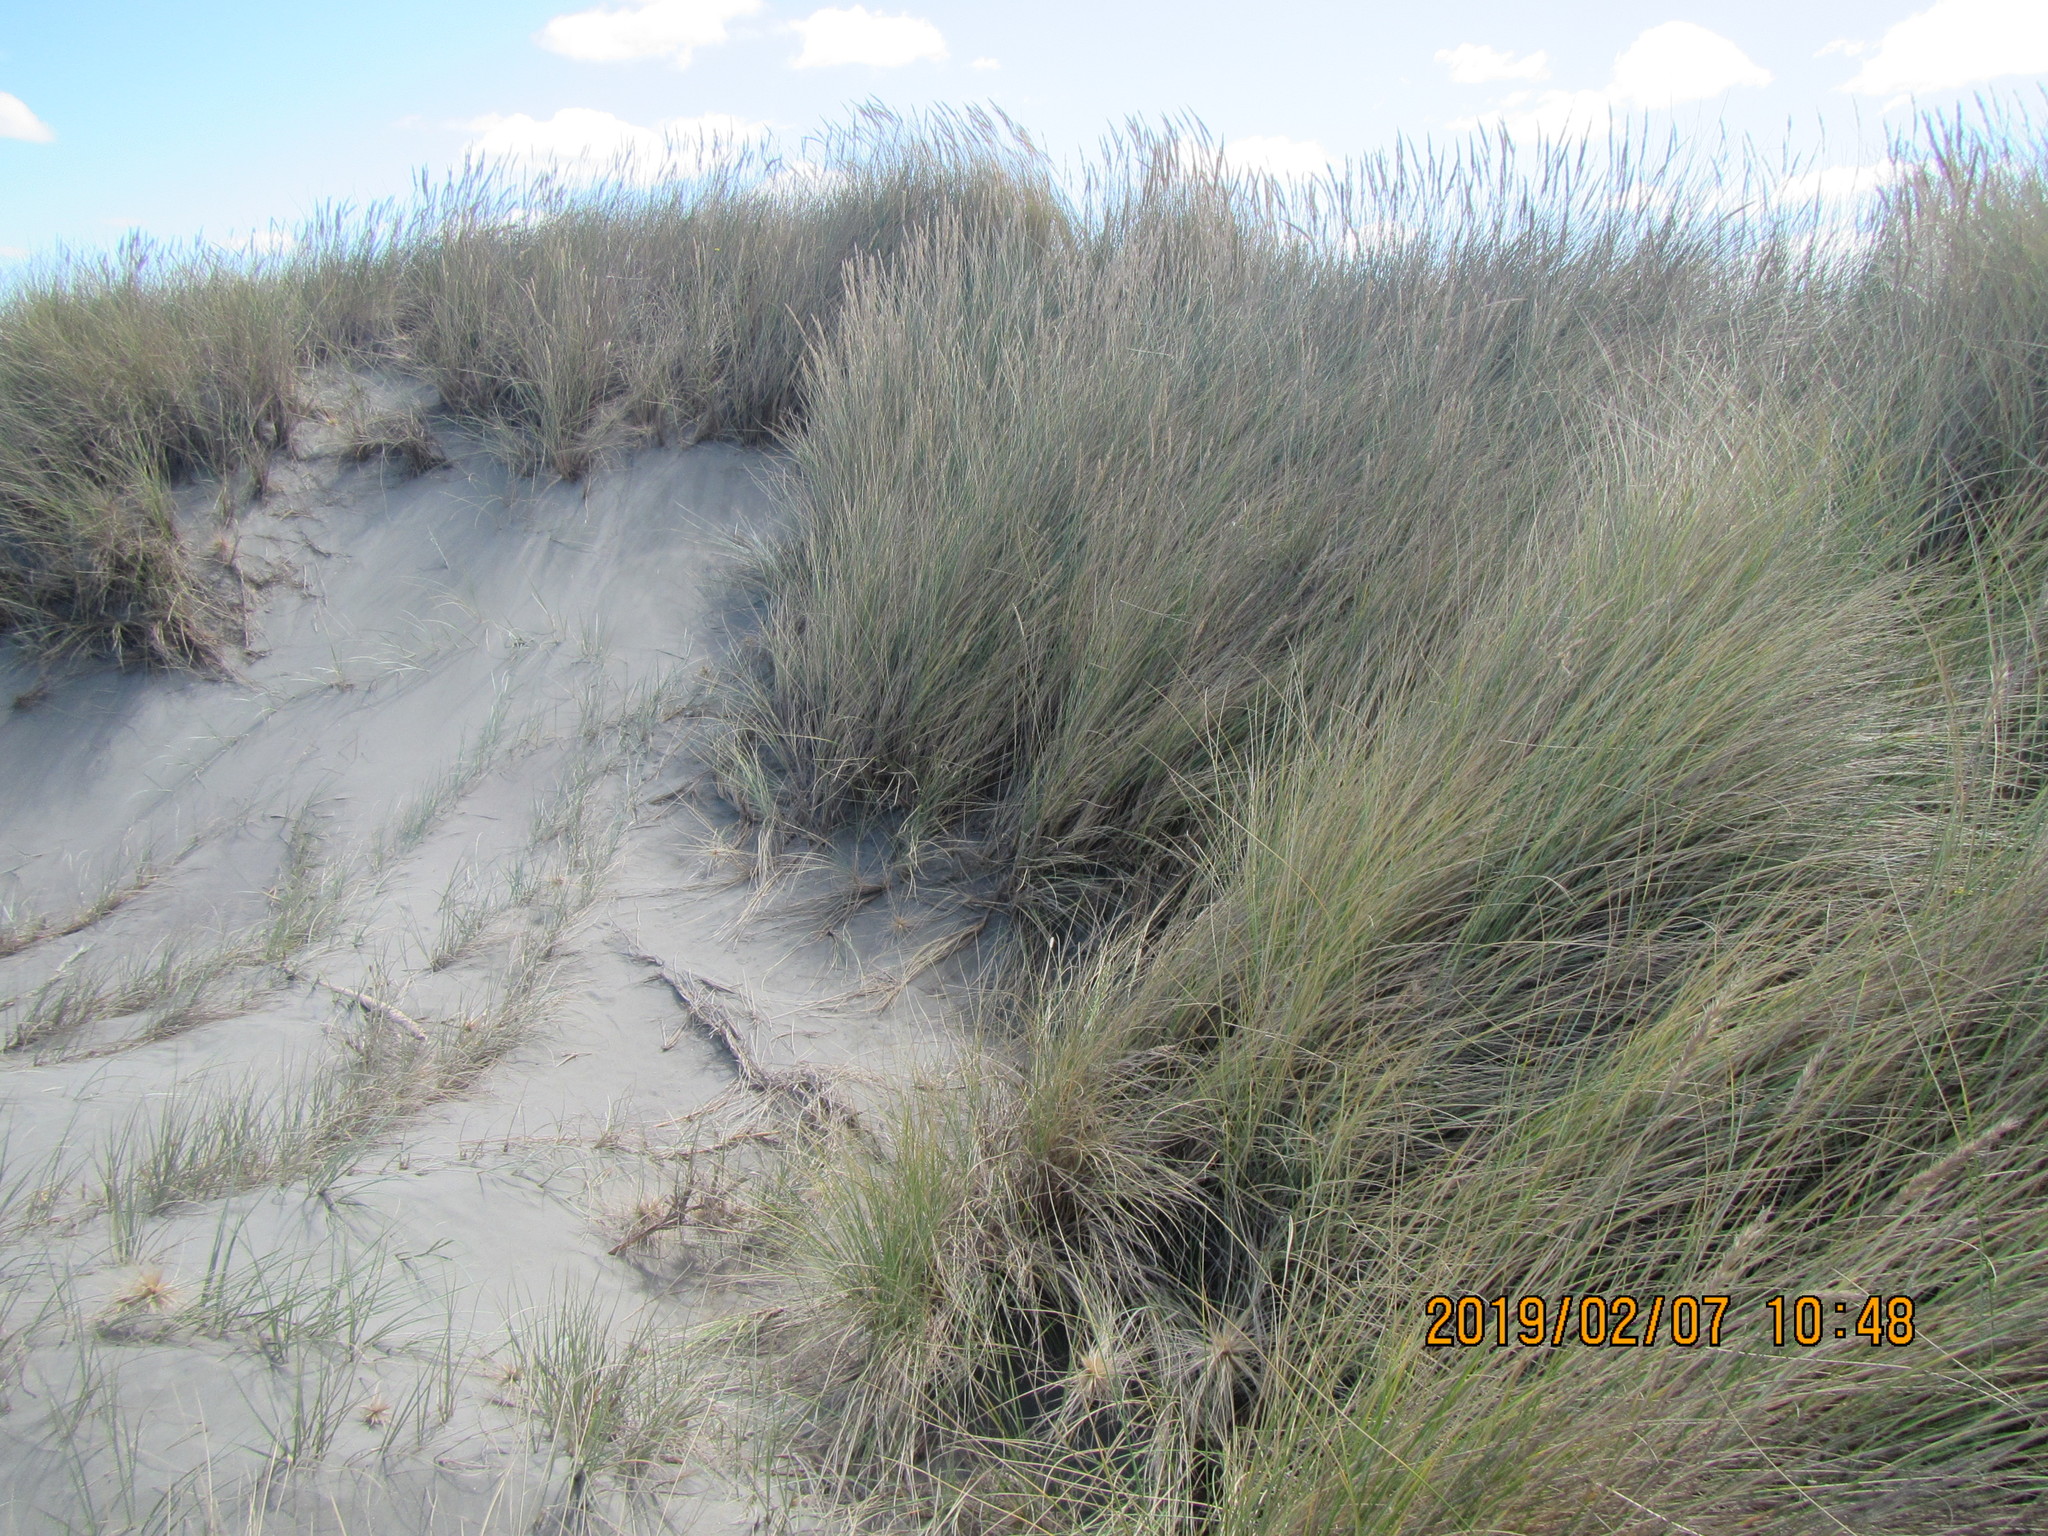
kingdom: Plantae
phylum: Tracheophyta
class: Liliopsida
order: Poales
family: Poaceae
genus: Calamagrostis
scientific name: Calamagrostis arenaria
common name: European beachgrass
